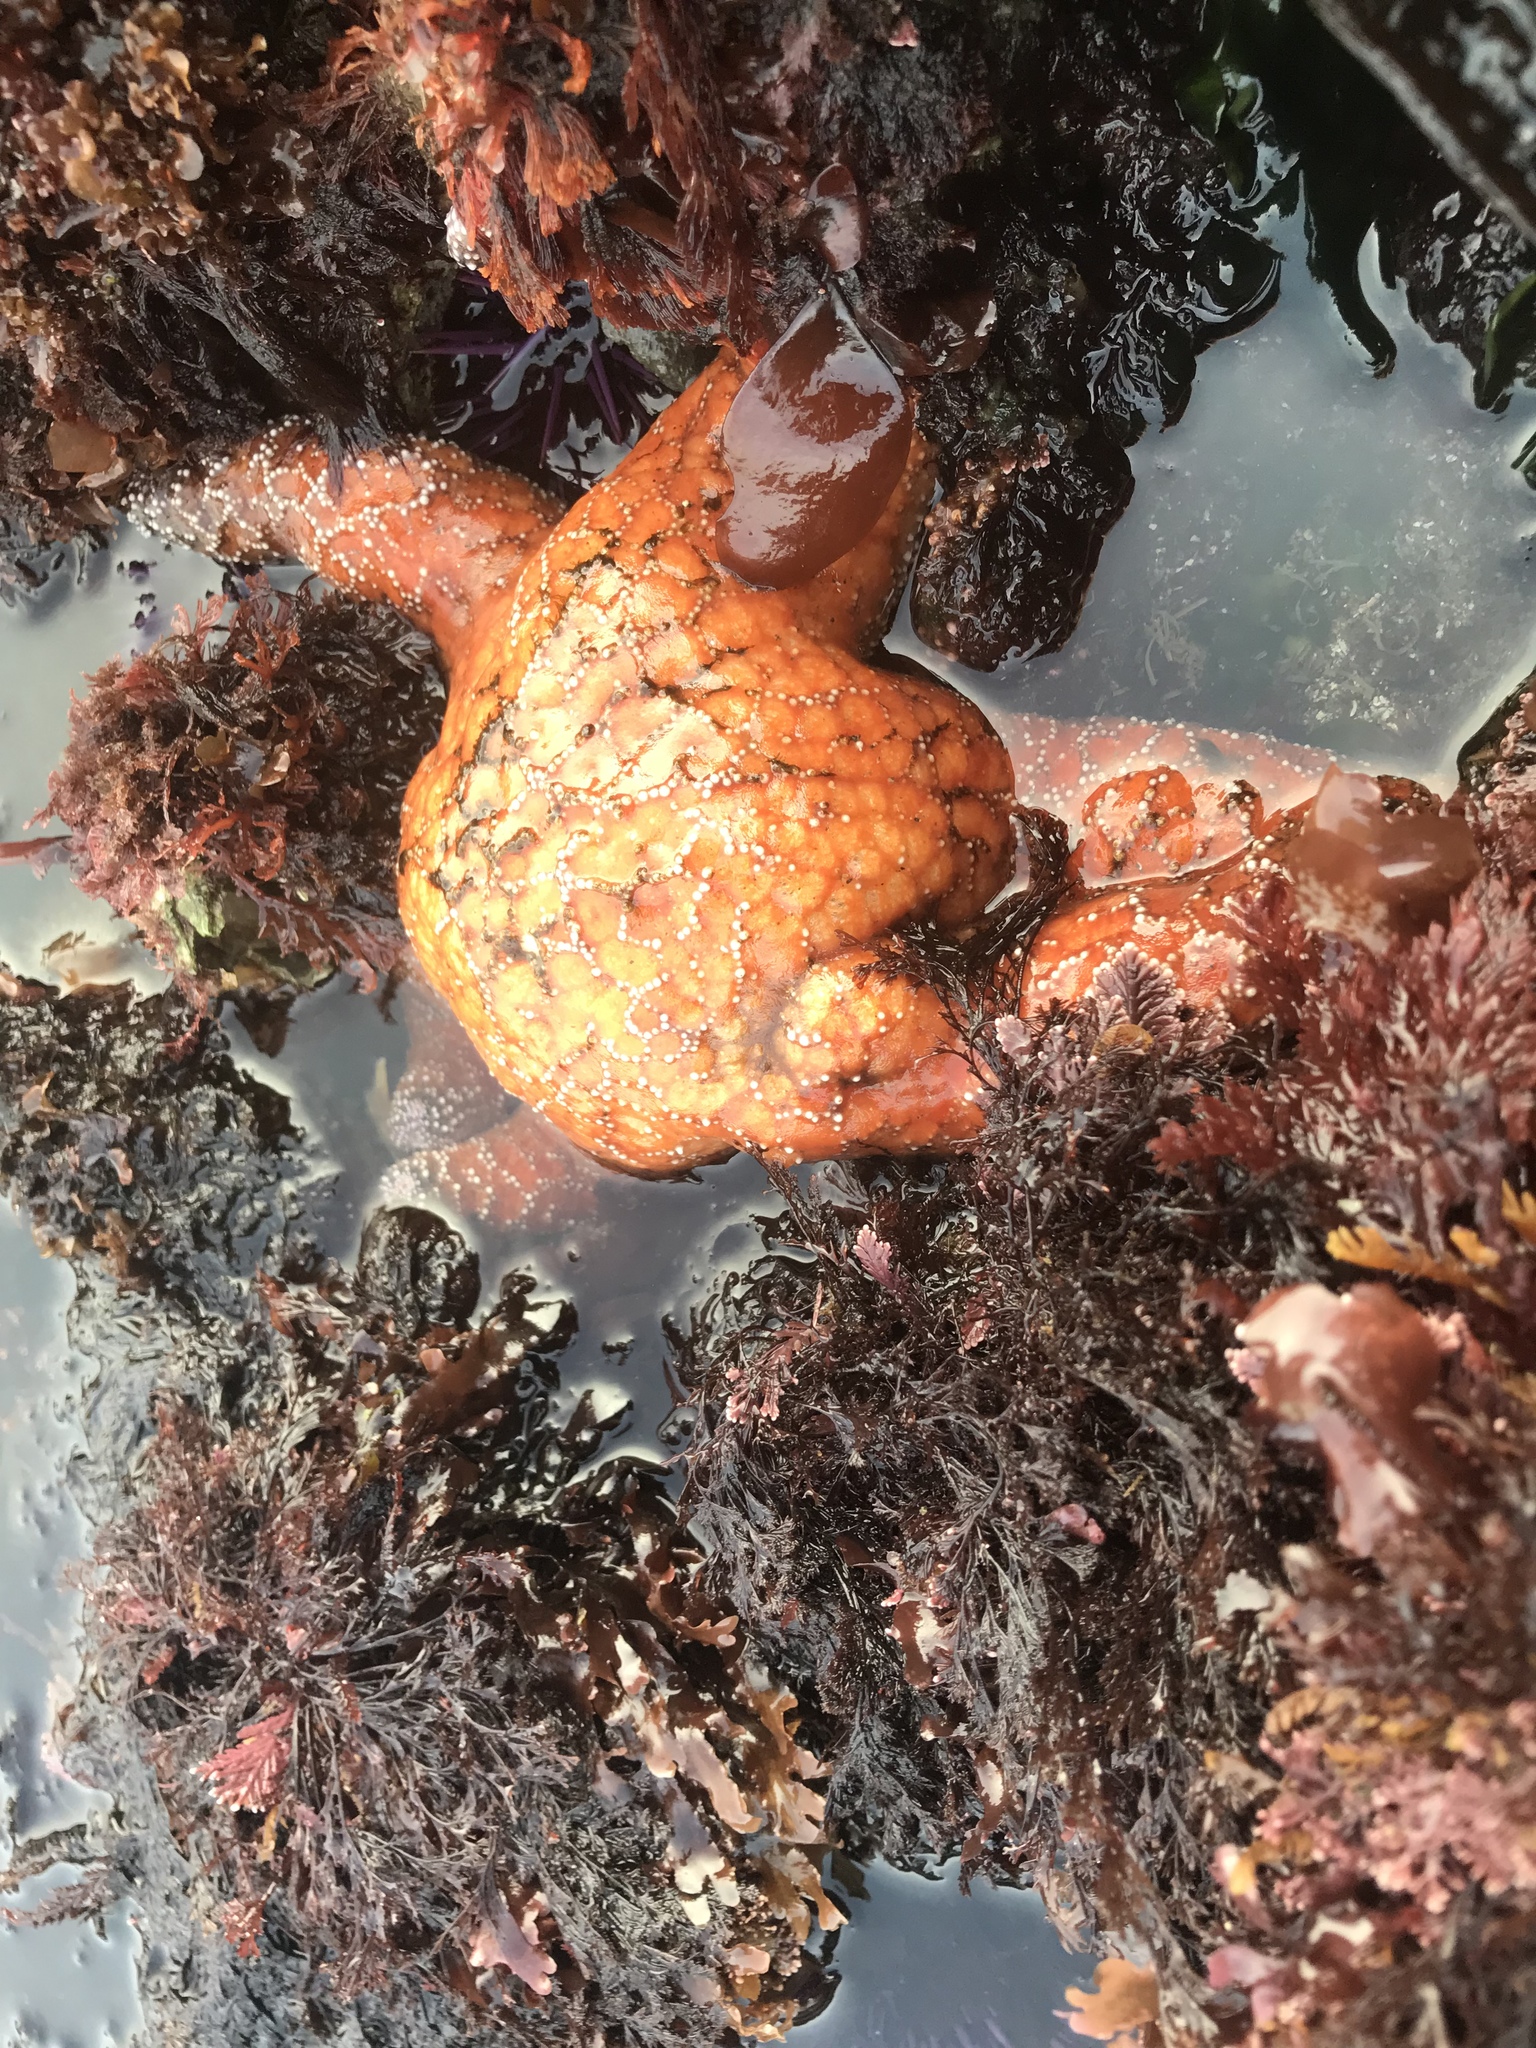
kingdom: Animalia
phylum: Echinodermata
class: Asteroidea
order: Forcipulatida
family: Asteriidae
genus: Pisaster
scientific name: Pisaster ochraceus
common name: Ochre stars
